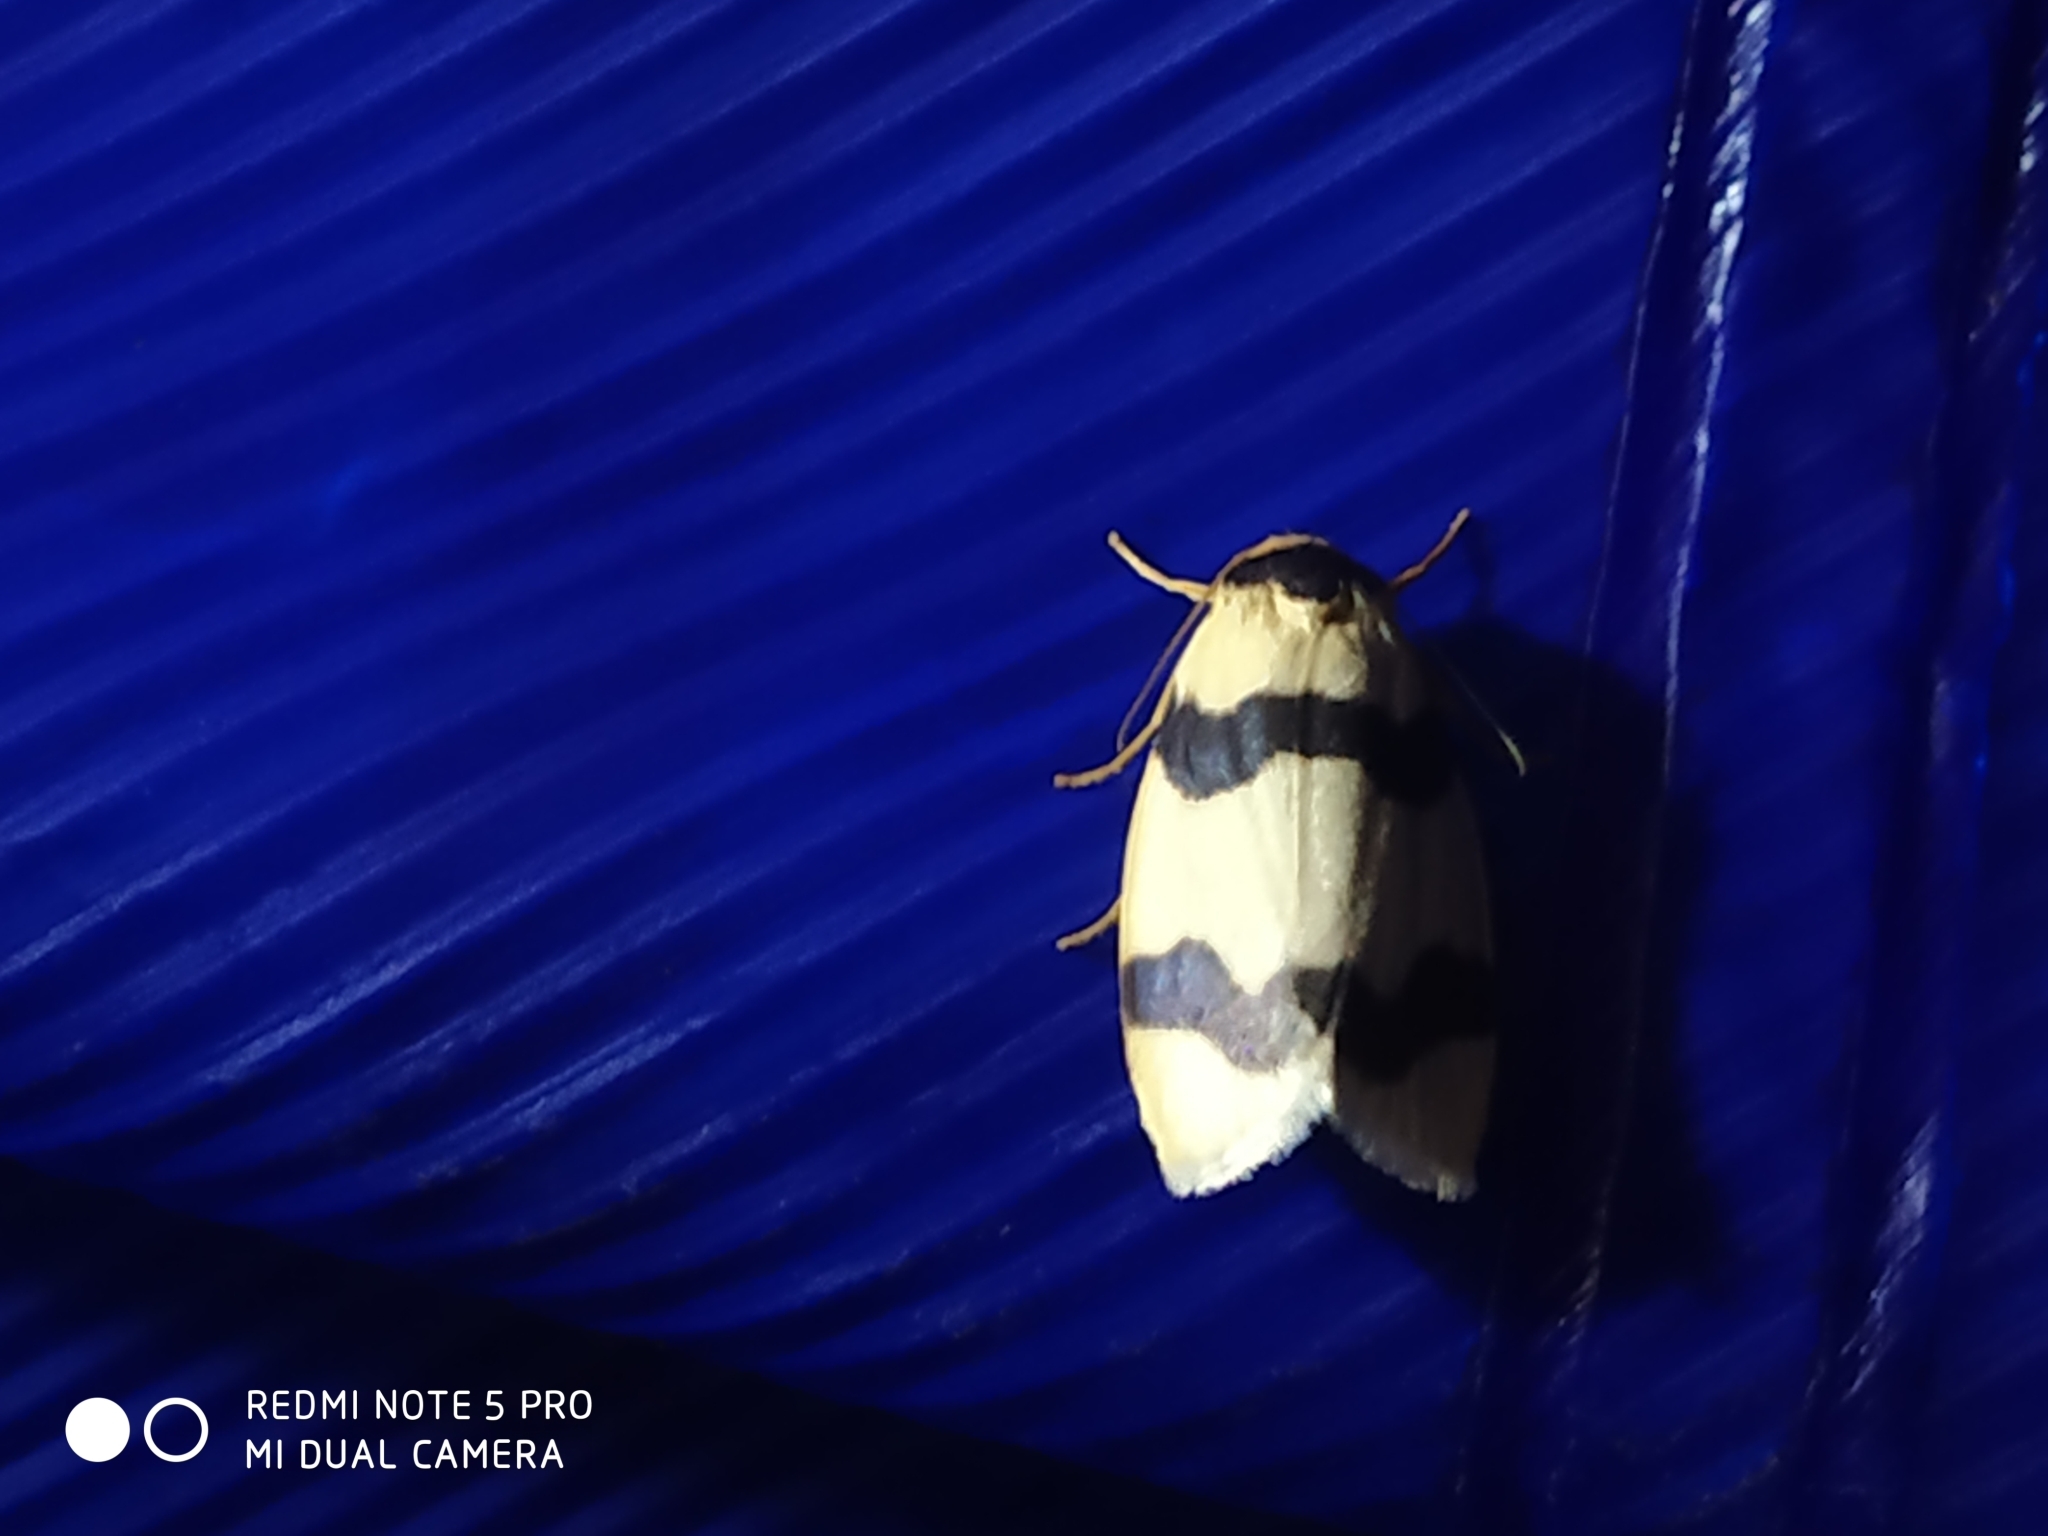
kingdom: Animalia
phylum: Arthropoda
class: Insecta
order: Lepidoptera
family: Erebidae
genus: Padenia
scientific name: Padenia transversa
